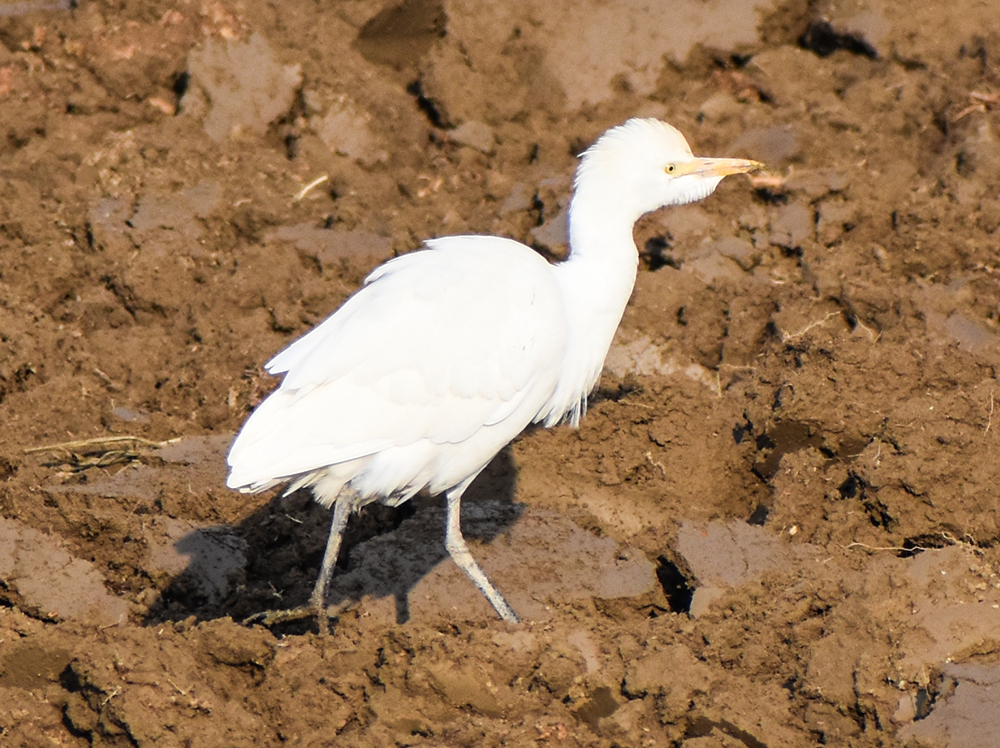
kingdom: Animalia
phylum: Chordata
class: Aves
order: Pelecaniformes
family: Ardeidae
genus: Bubulcus
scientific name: Bubulcus ibis
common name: Cattle egret
